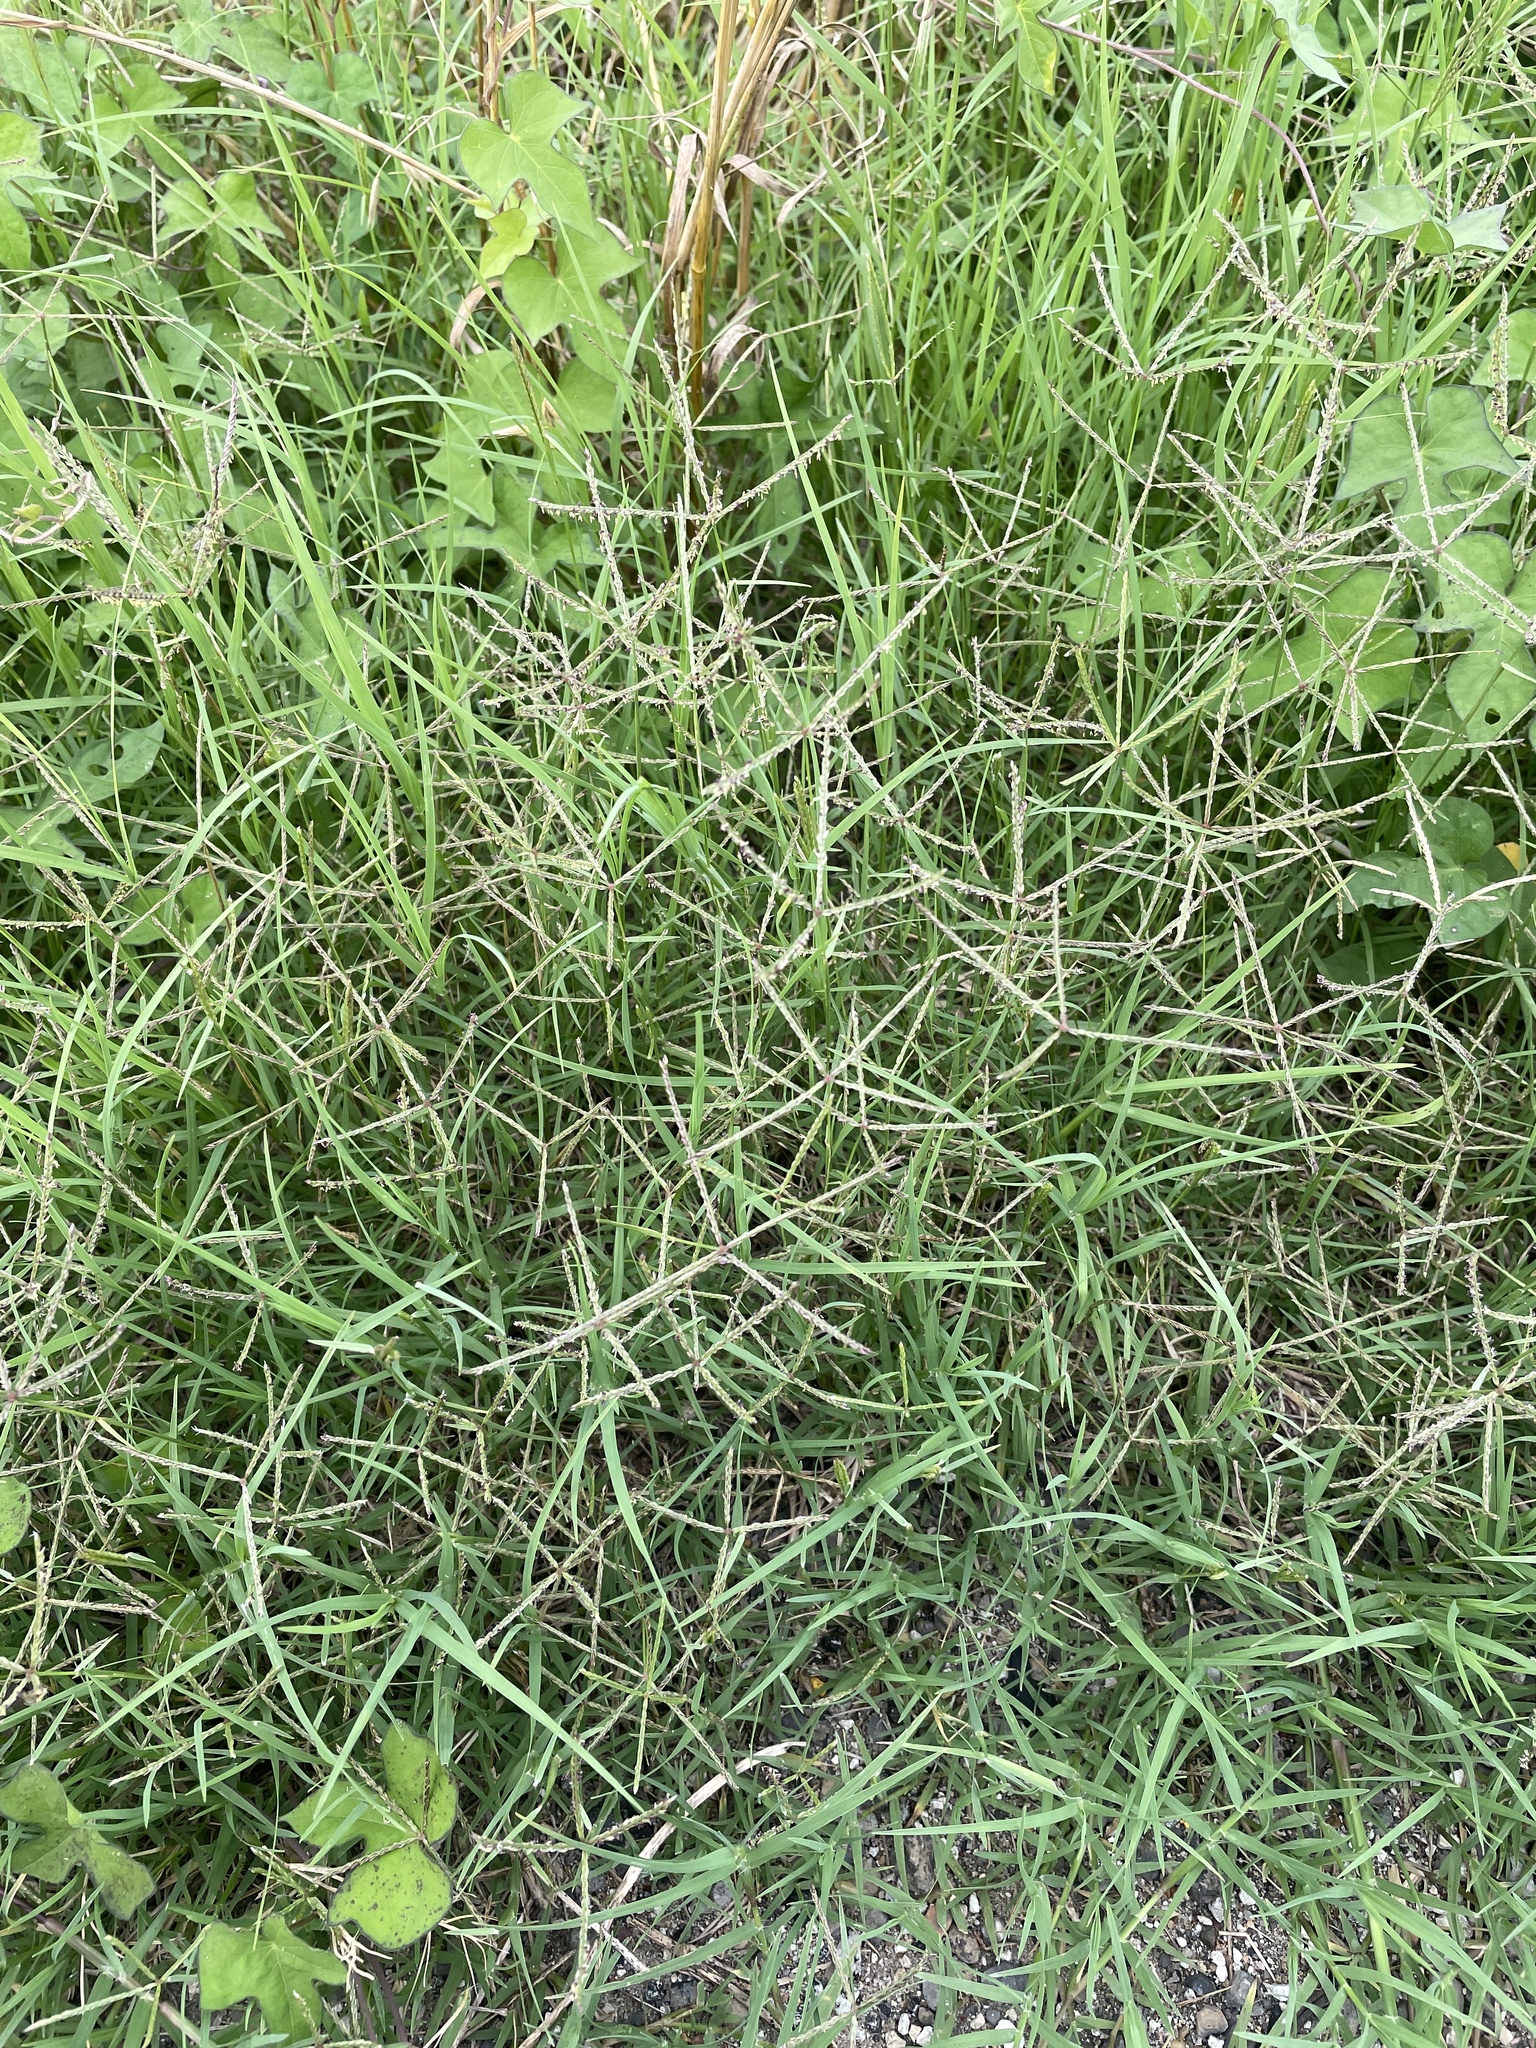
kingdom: Plantae
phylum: Tracheophyta
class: Liliopsida
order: Poales
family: Poaceae
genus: Cynodon
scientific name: Cynodon dactylon
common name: Bermuda grass
